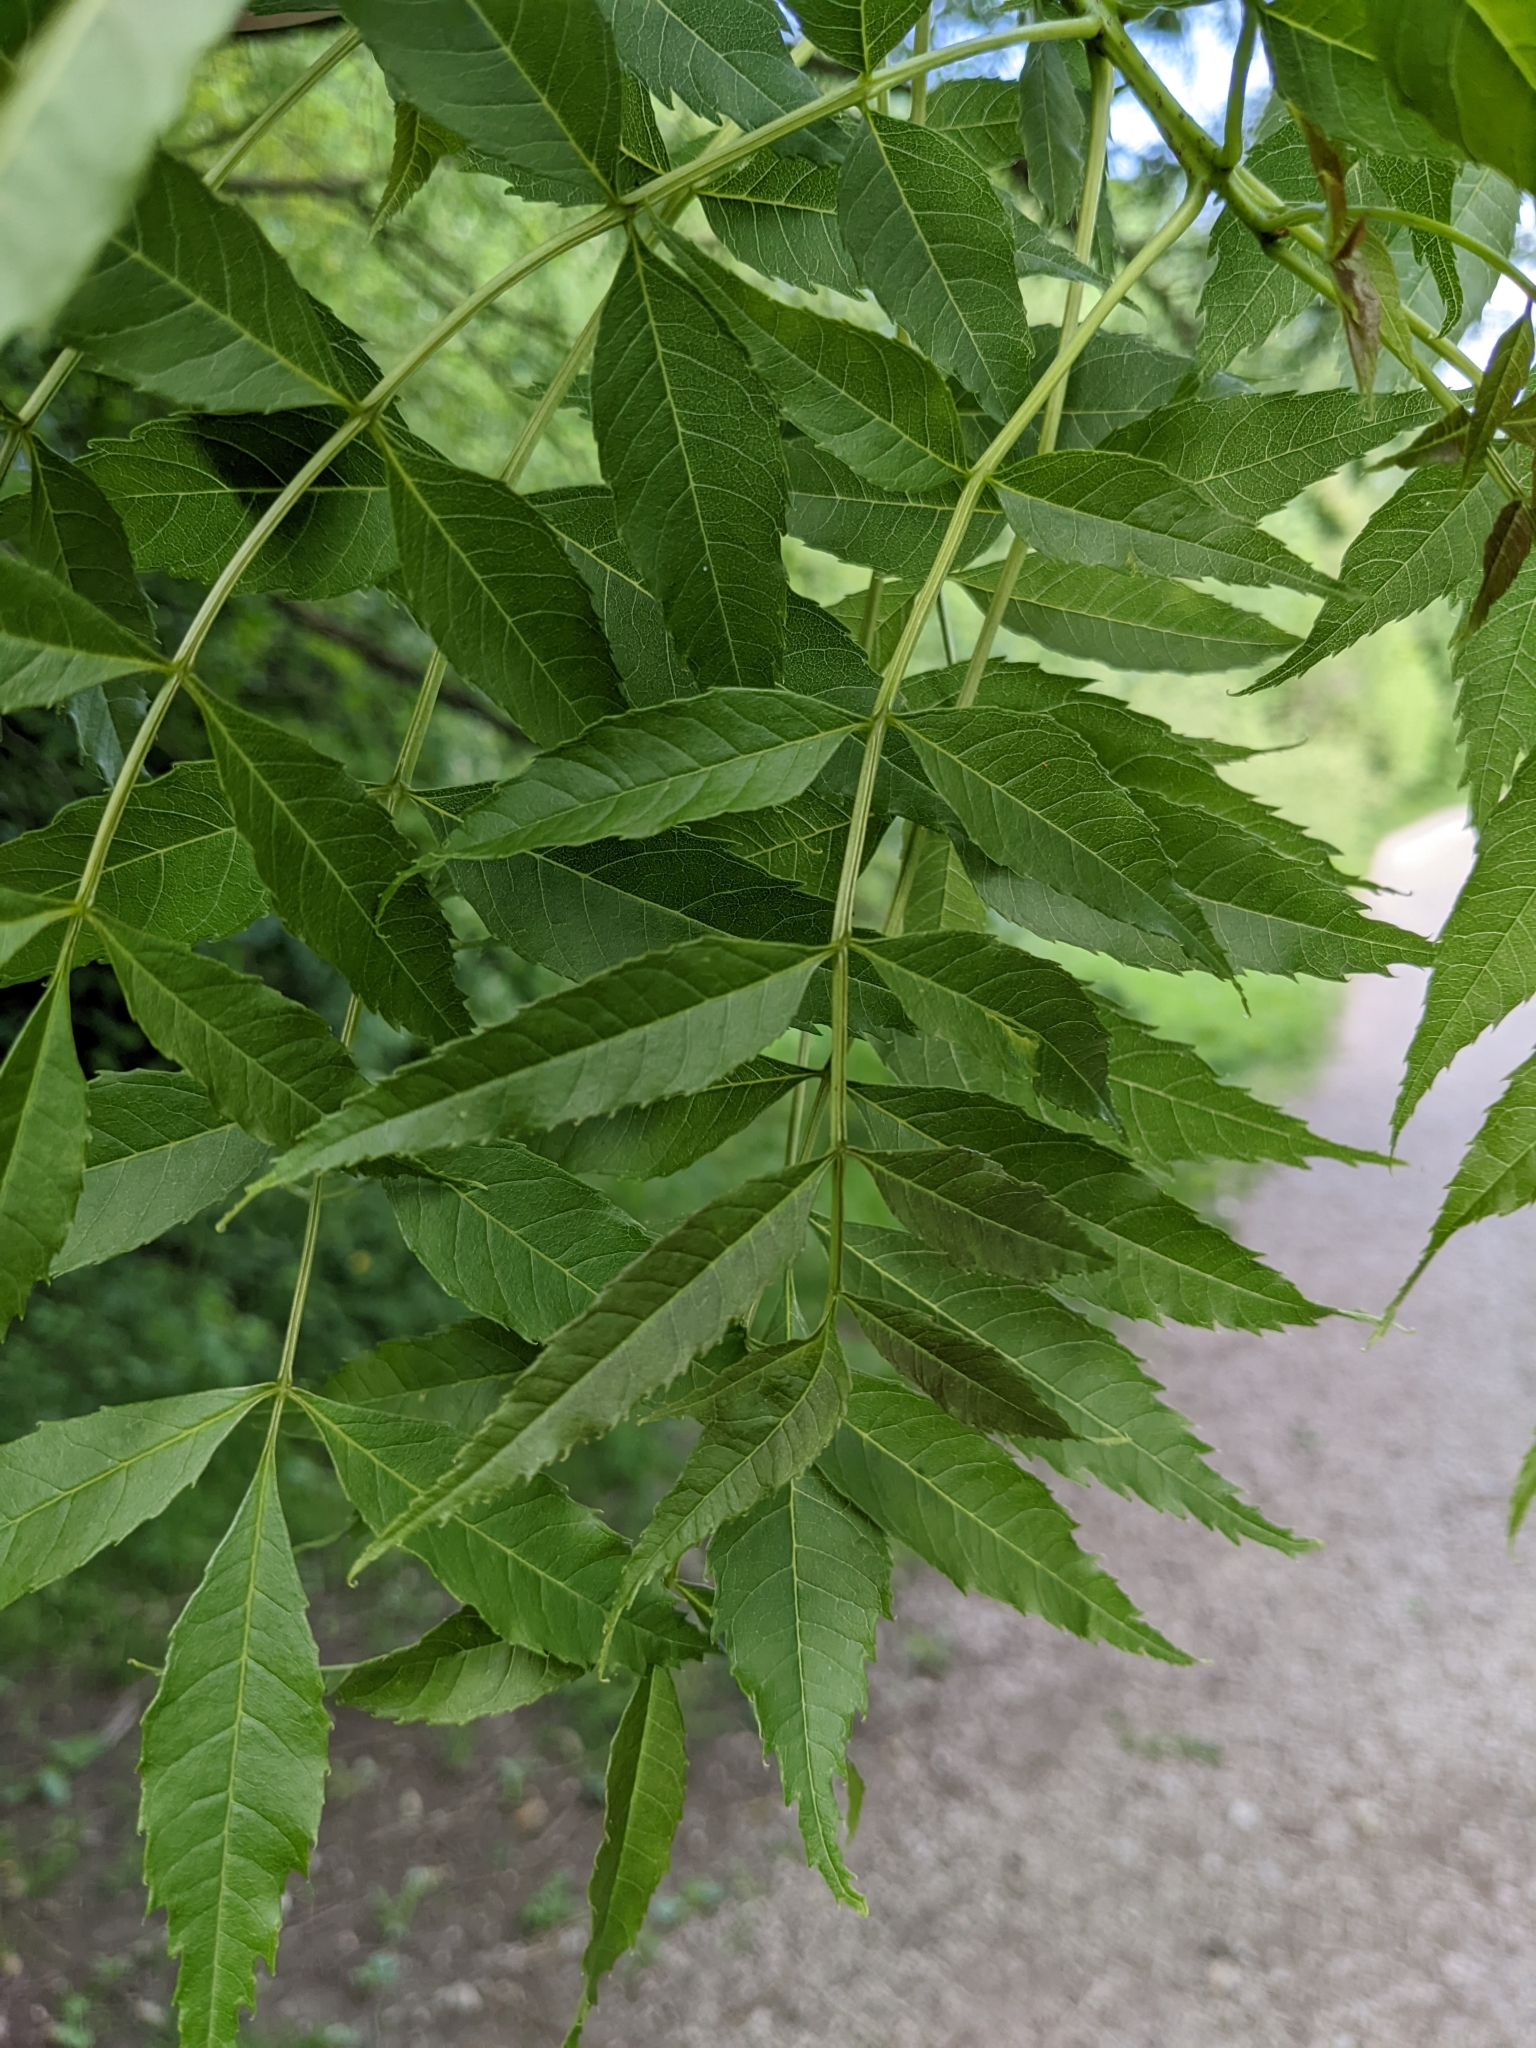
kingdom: Plantae
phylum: Tracheophyta
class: Magnoliopsida
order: Lamiales
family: Oleaceae
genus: Fraxinus
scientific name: Fraxinus angustifolia
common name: Narrow-leafed ash
